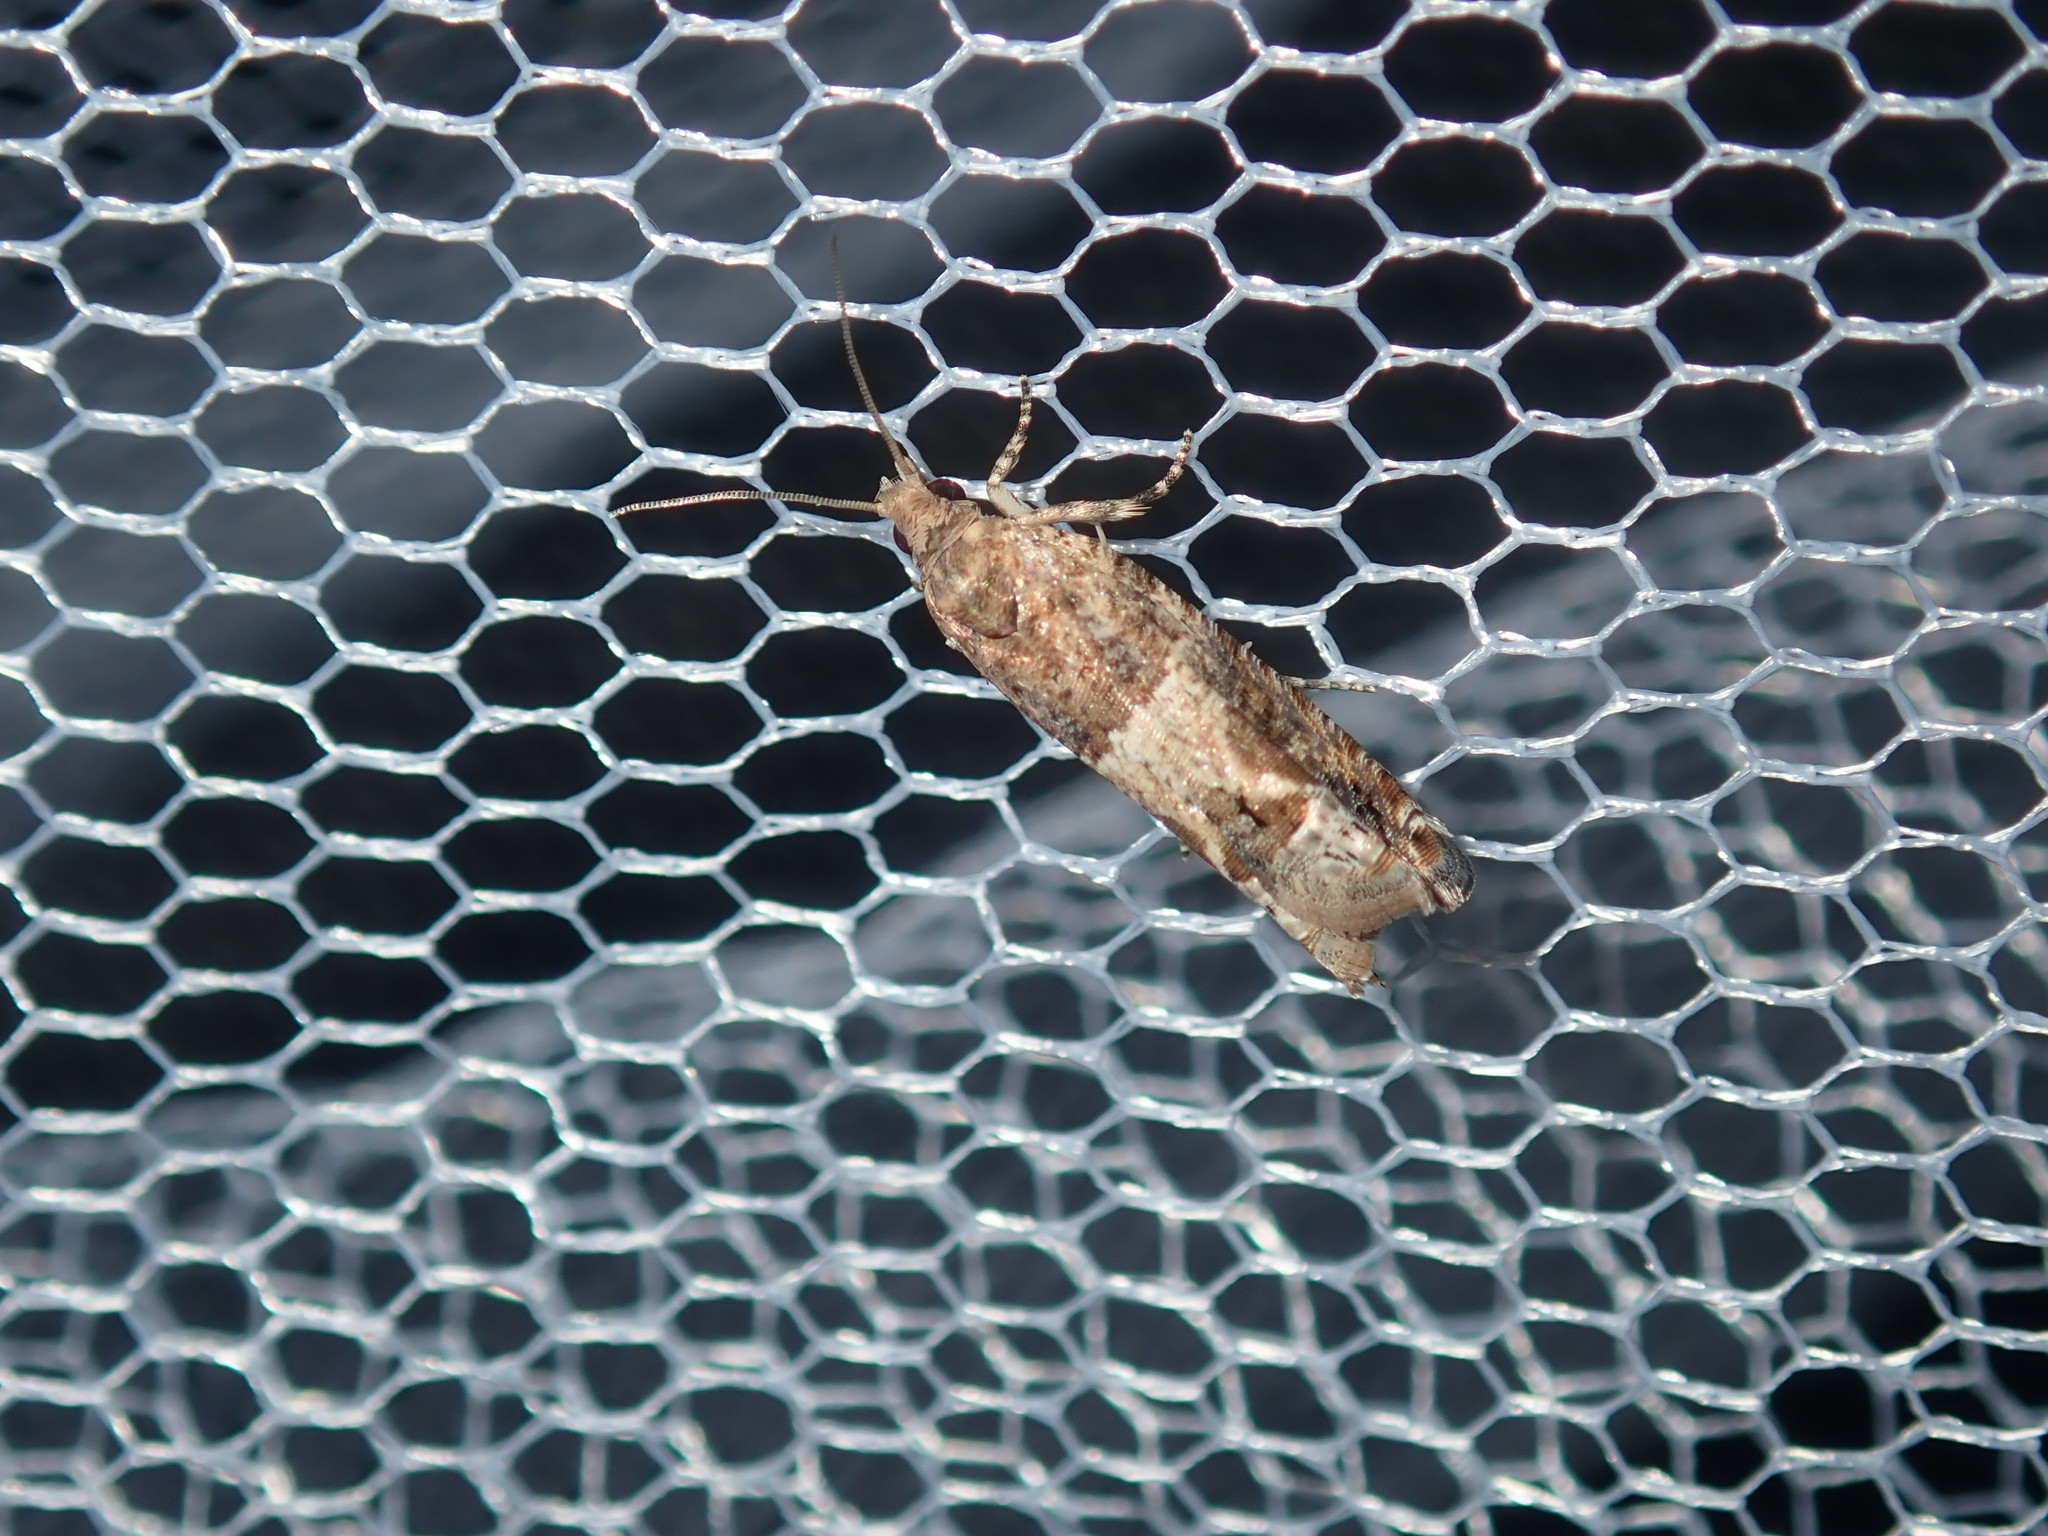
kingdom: Animalia
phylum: Arthropoda
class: Insecta
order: Lepidoptera
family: Tortricidae
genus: Crocidosema
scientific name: Crocidosema plebejana
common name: Southern bell
